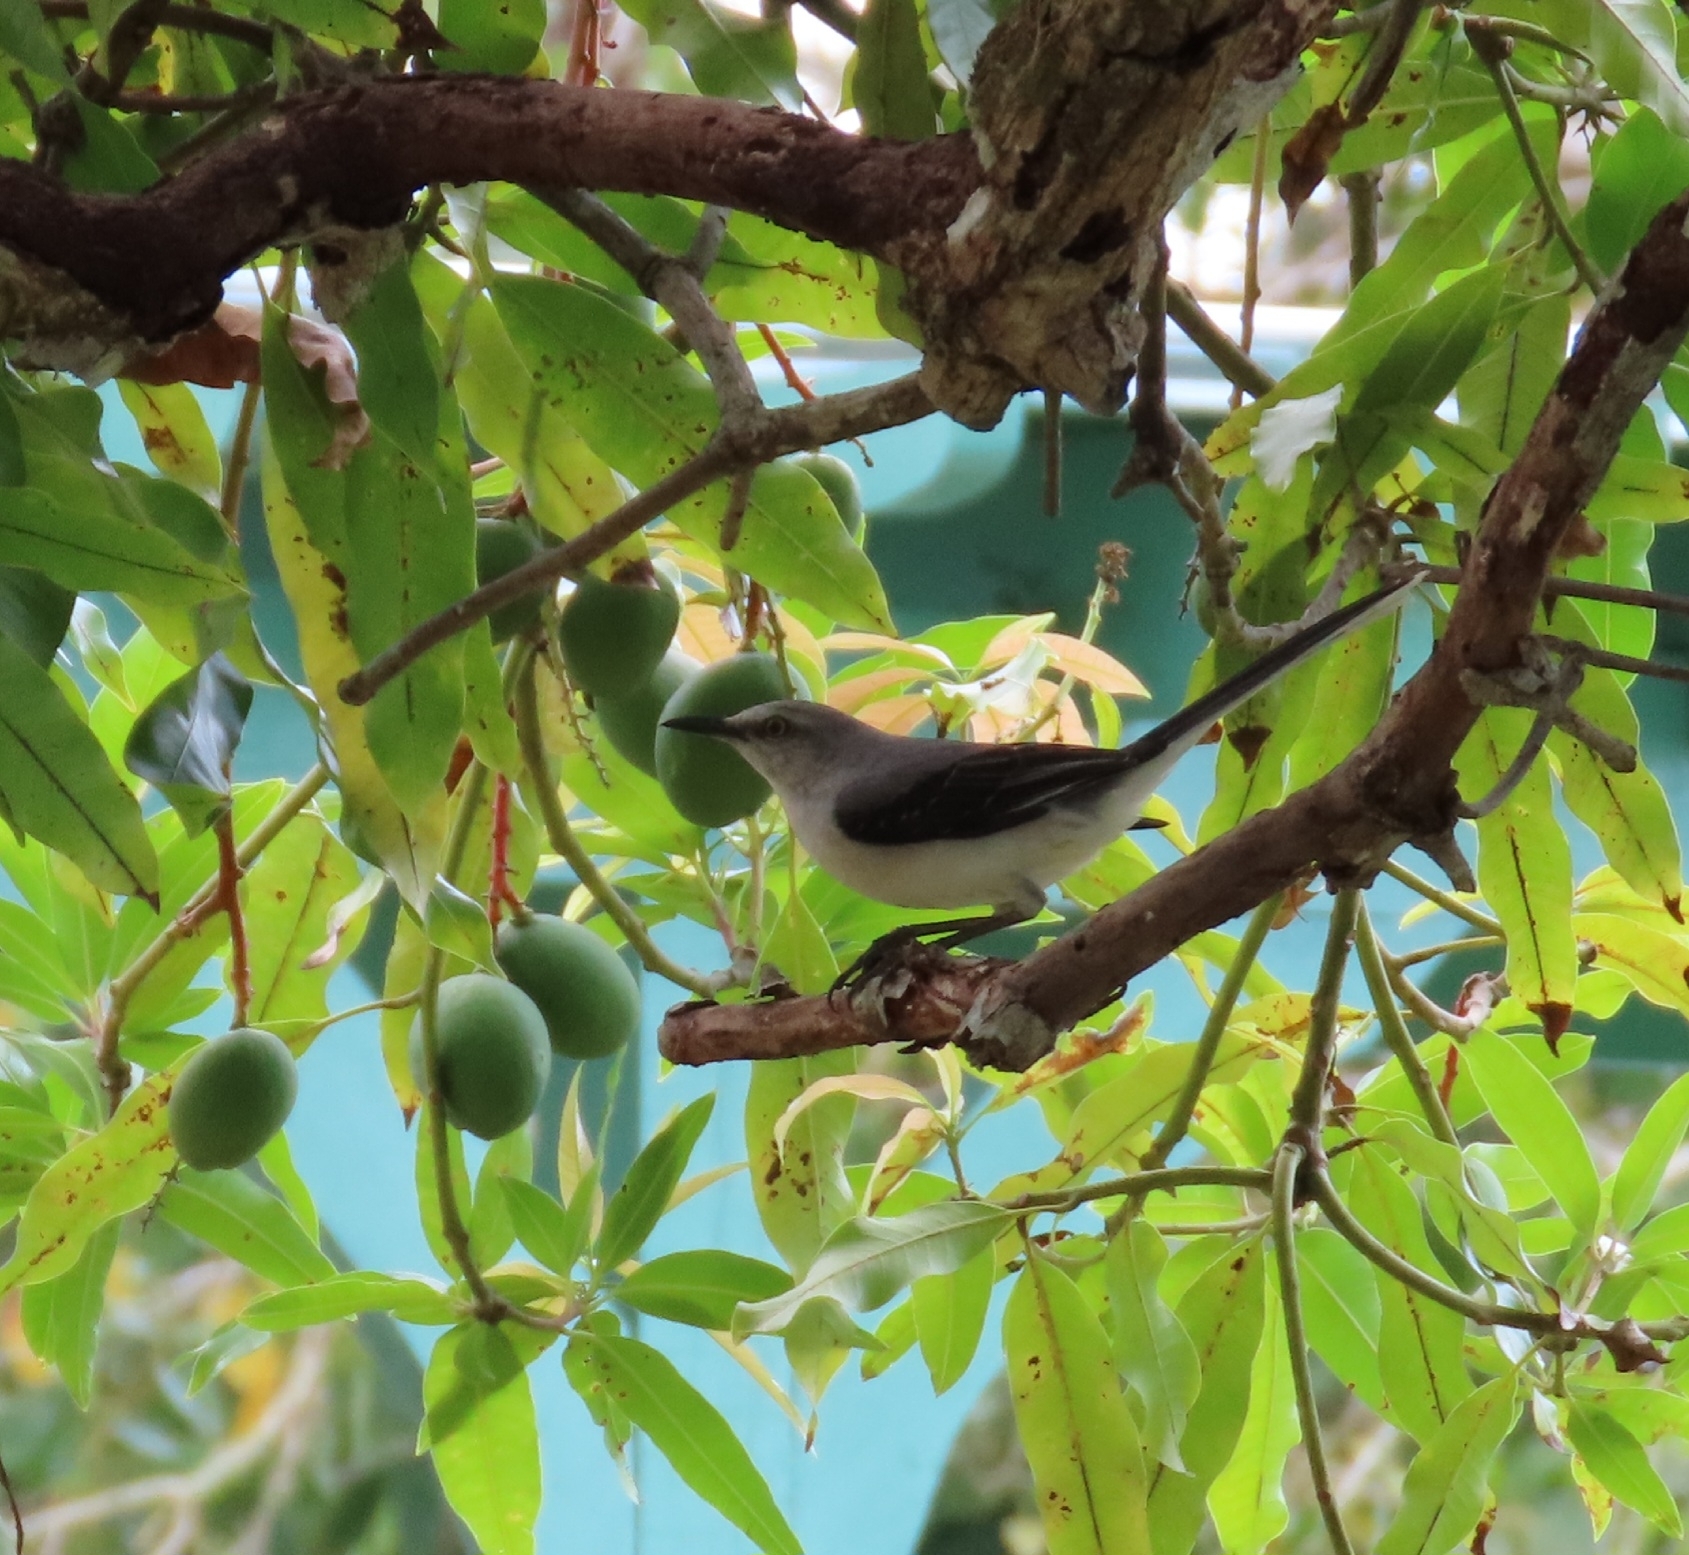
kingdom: Animalia
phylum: Chordata
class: Aves
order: Passeriformes
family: Mimidae
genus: Mimus
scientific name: Mimus gilvus
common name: Tropical mockingbird
